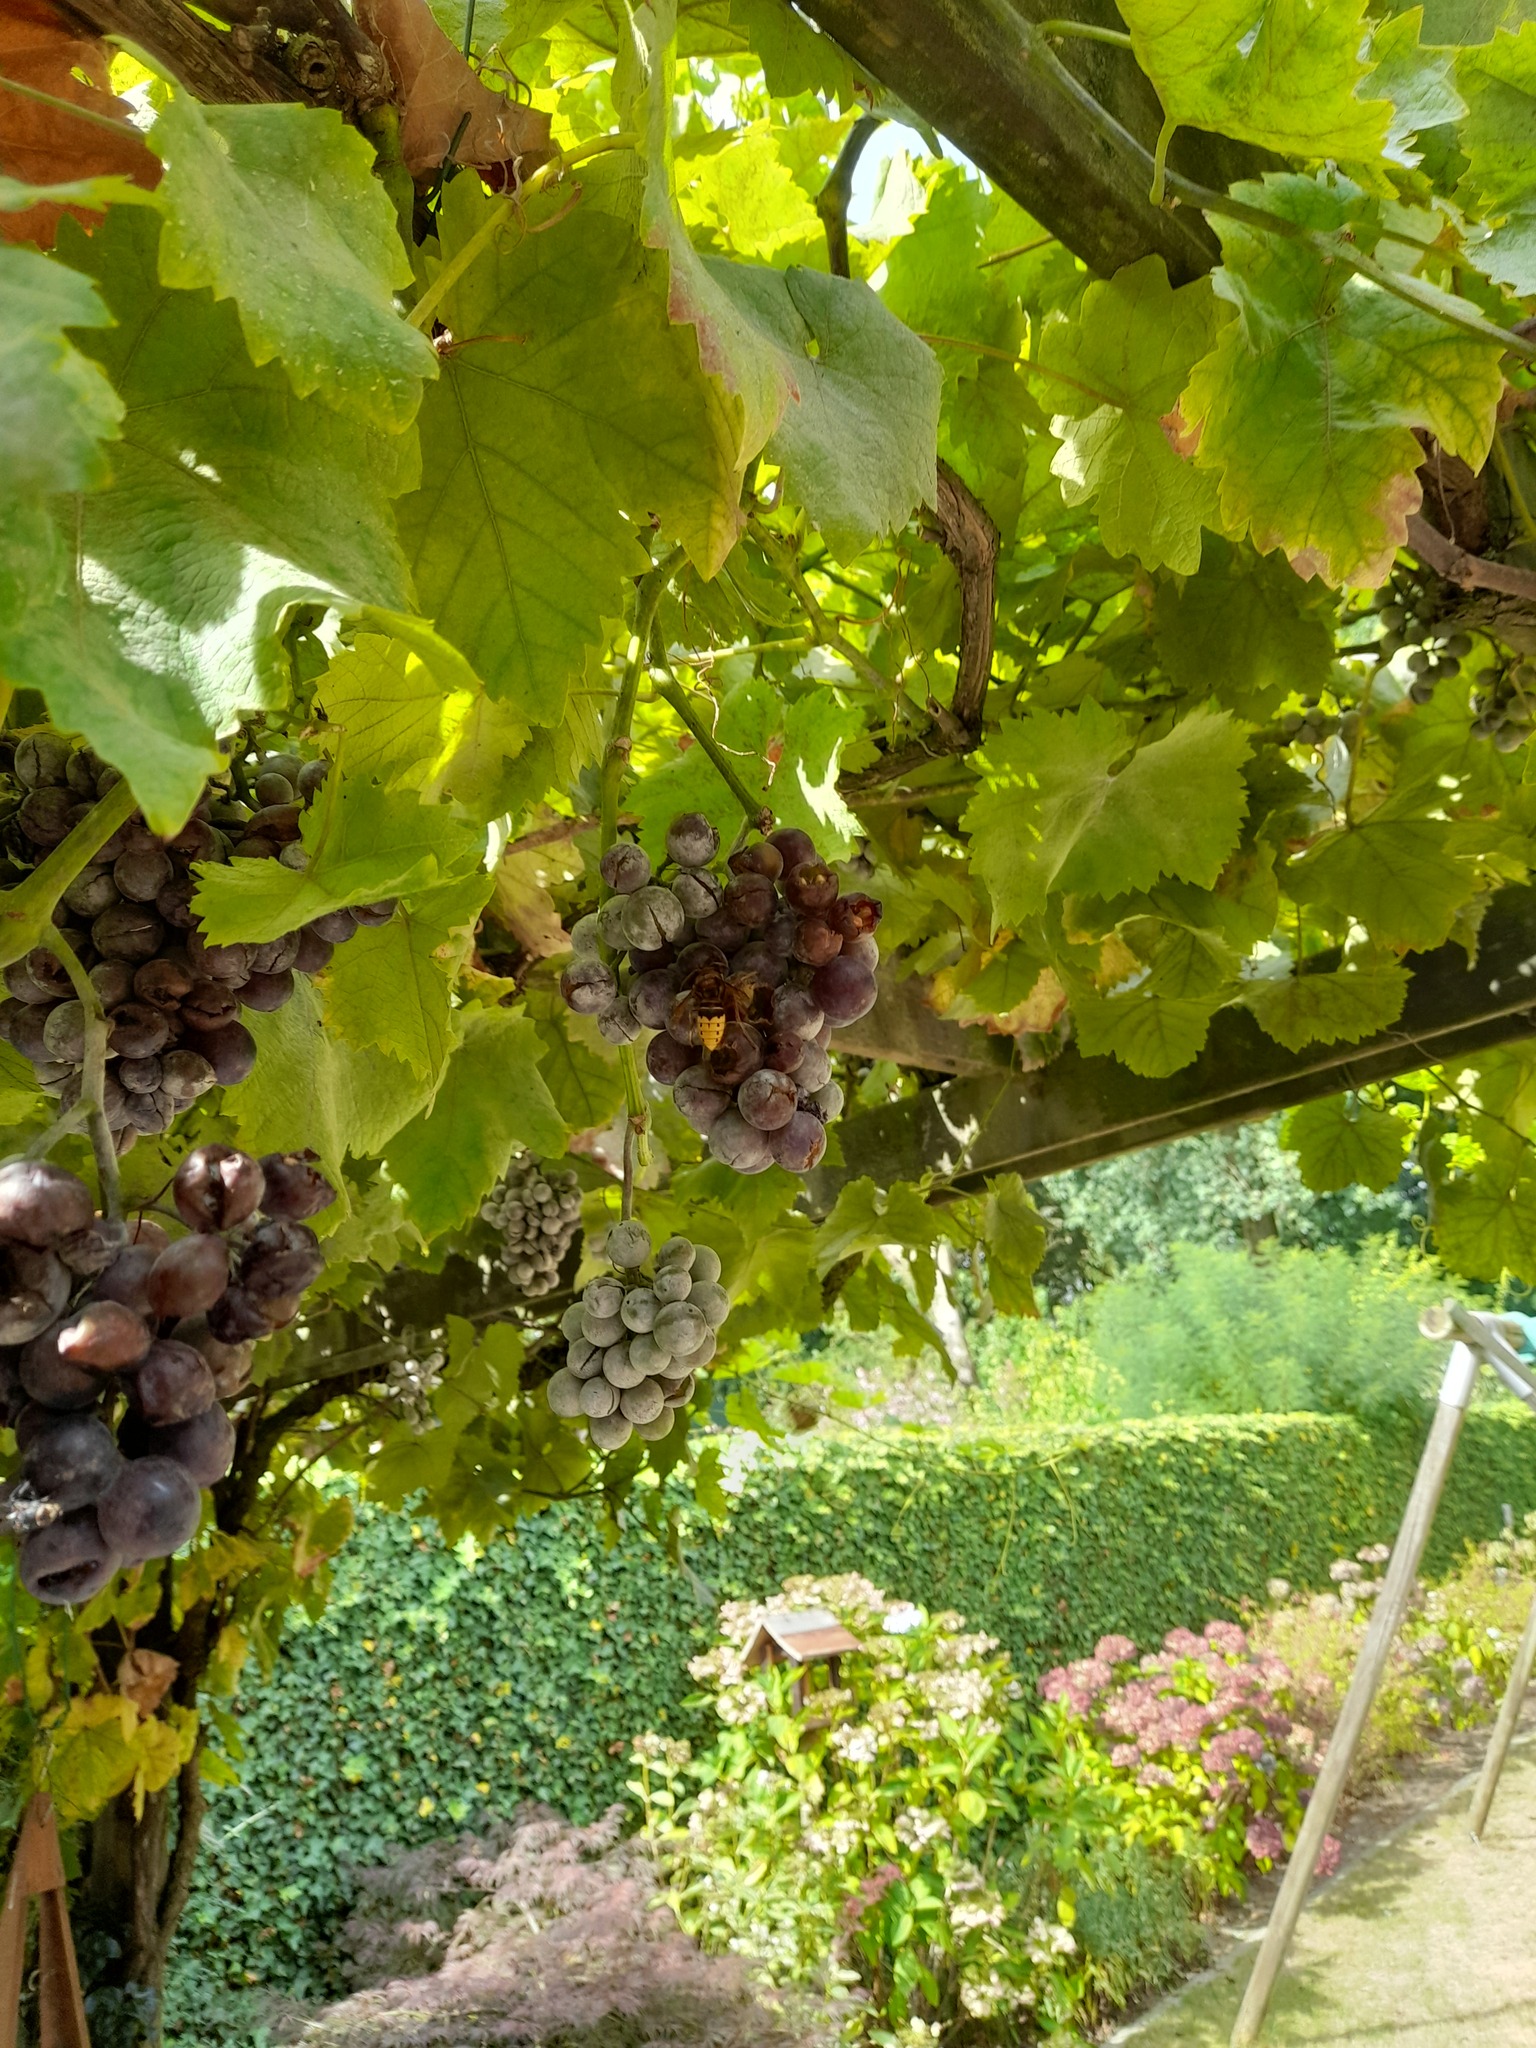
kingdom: Animalia
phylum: Arthropoda
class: Insecta
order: Hymenoptera
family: Vespidae
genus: Vespa
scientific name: Vespa crabro
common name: Hornet
